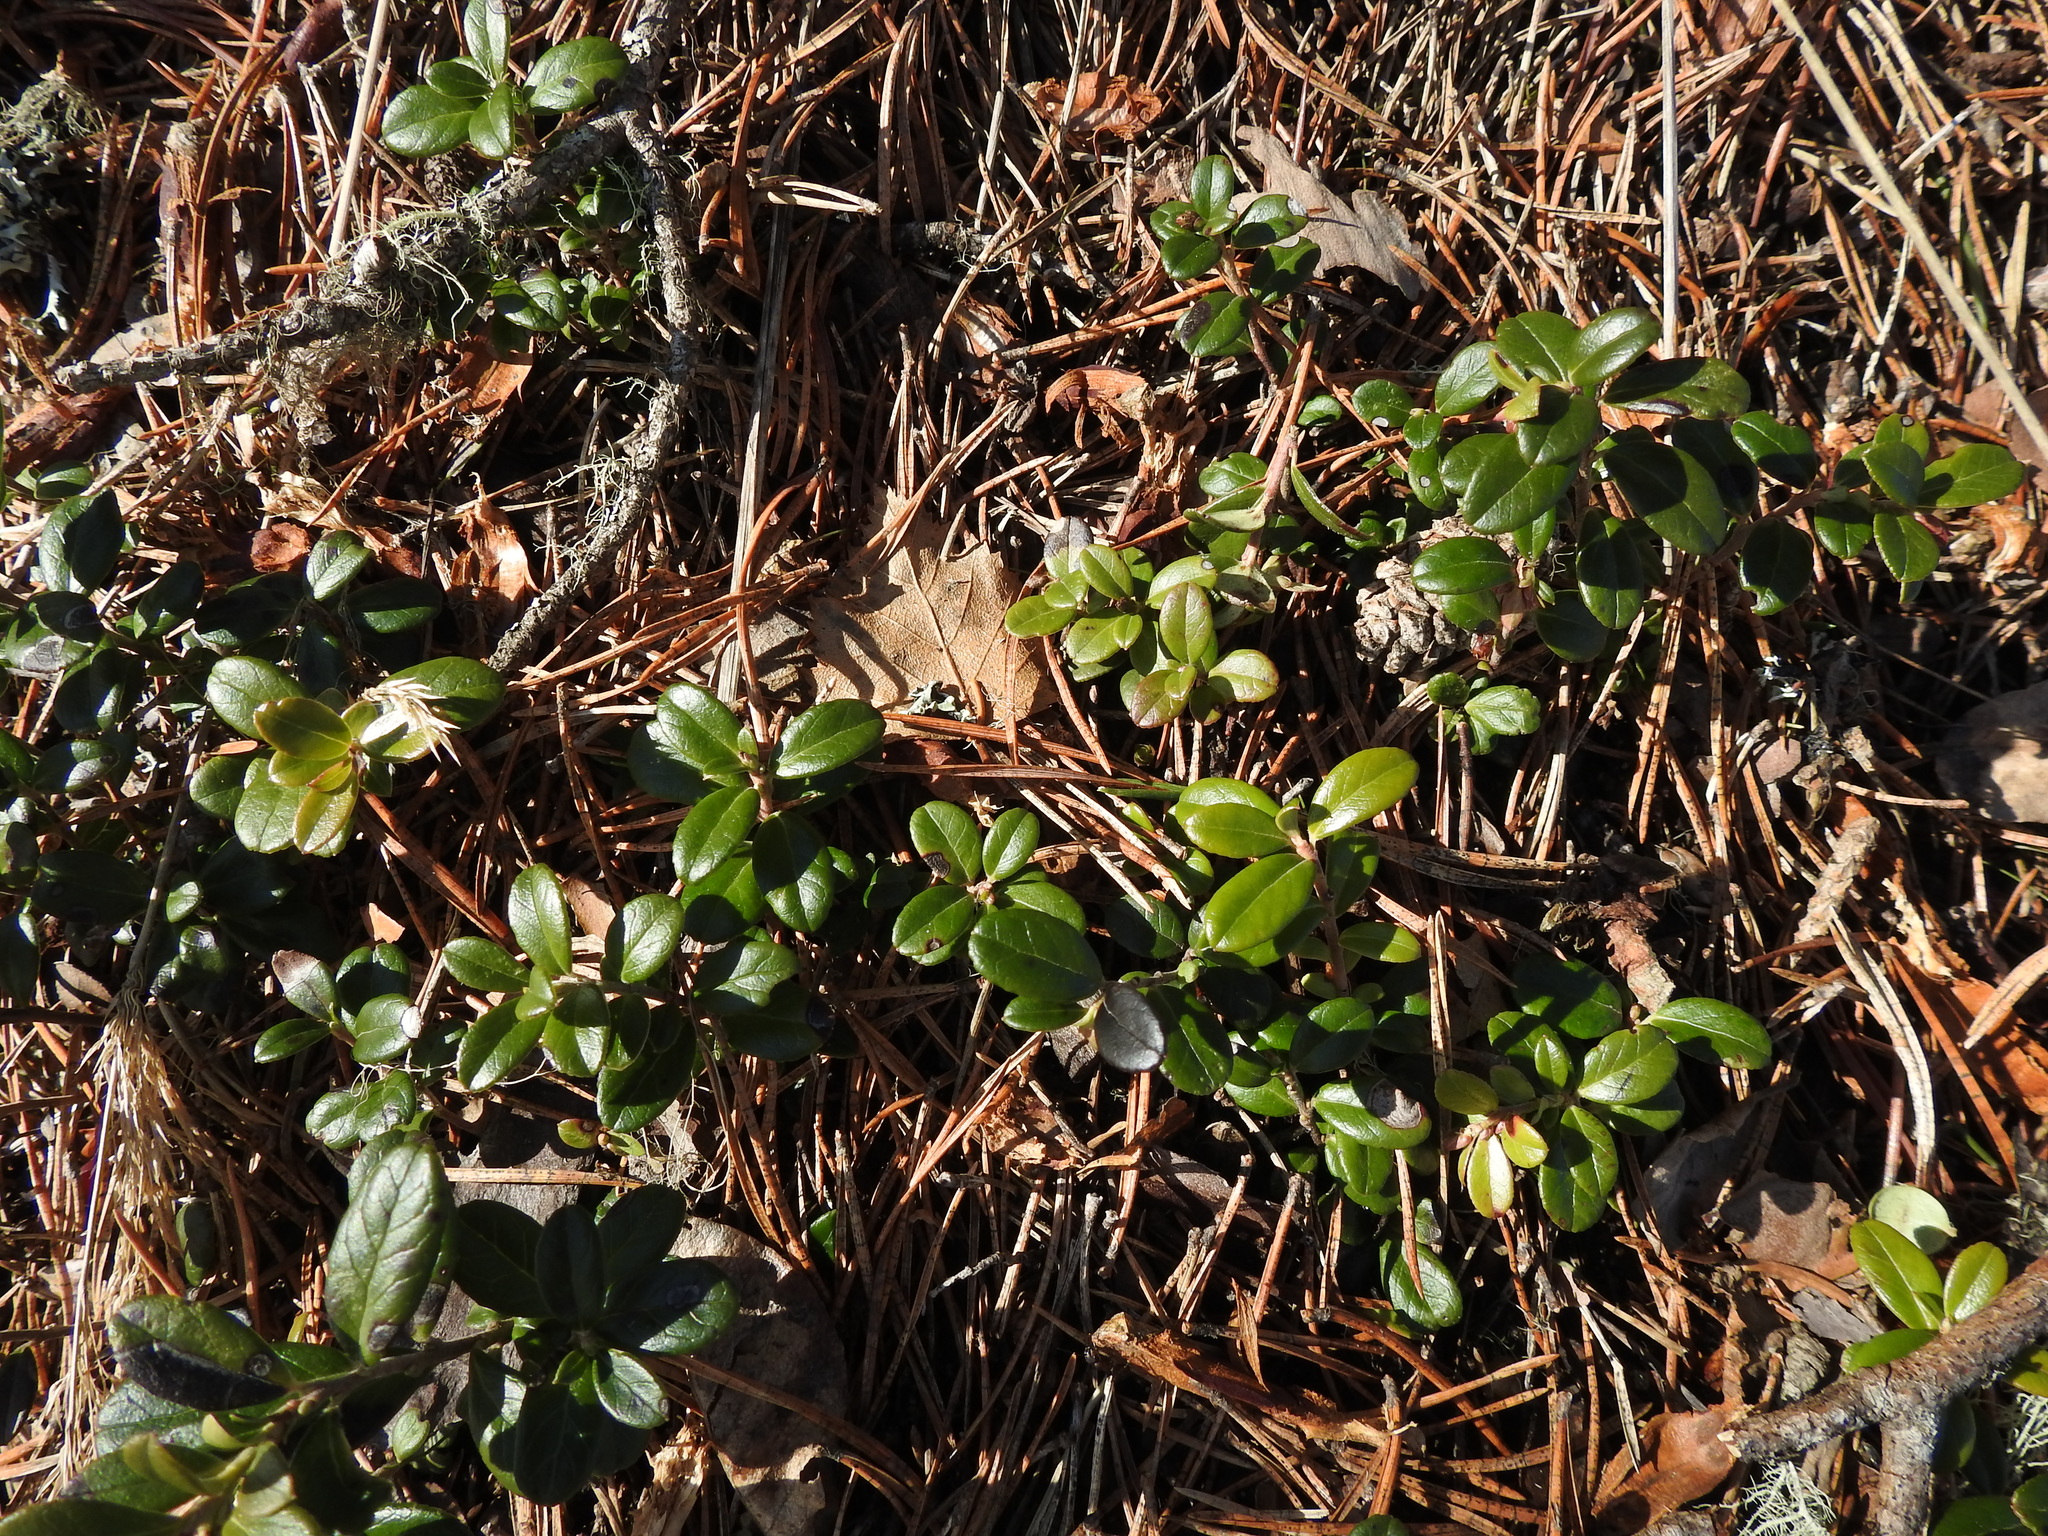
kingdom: Plantae
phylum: Tracheophyta
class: Magnoliopsida
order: Ericales
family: Ericaceae
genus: Vaccinium
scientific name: Vaccinium vitis-idaea
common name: Cowberry
